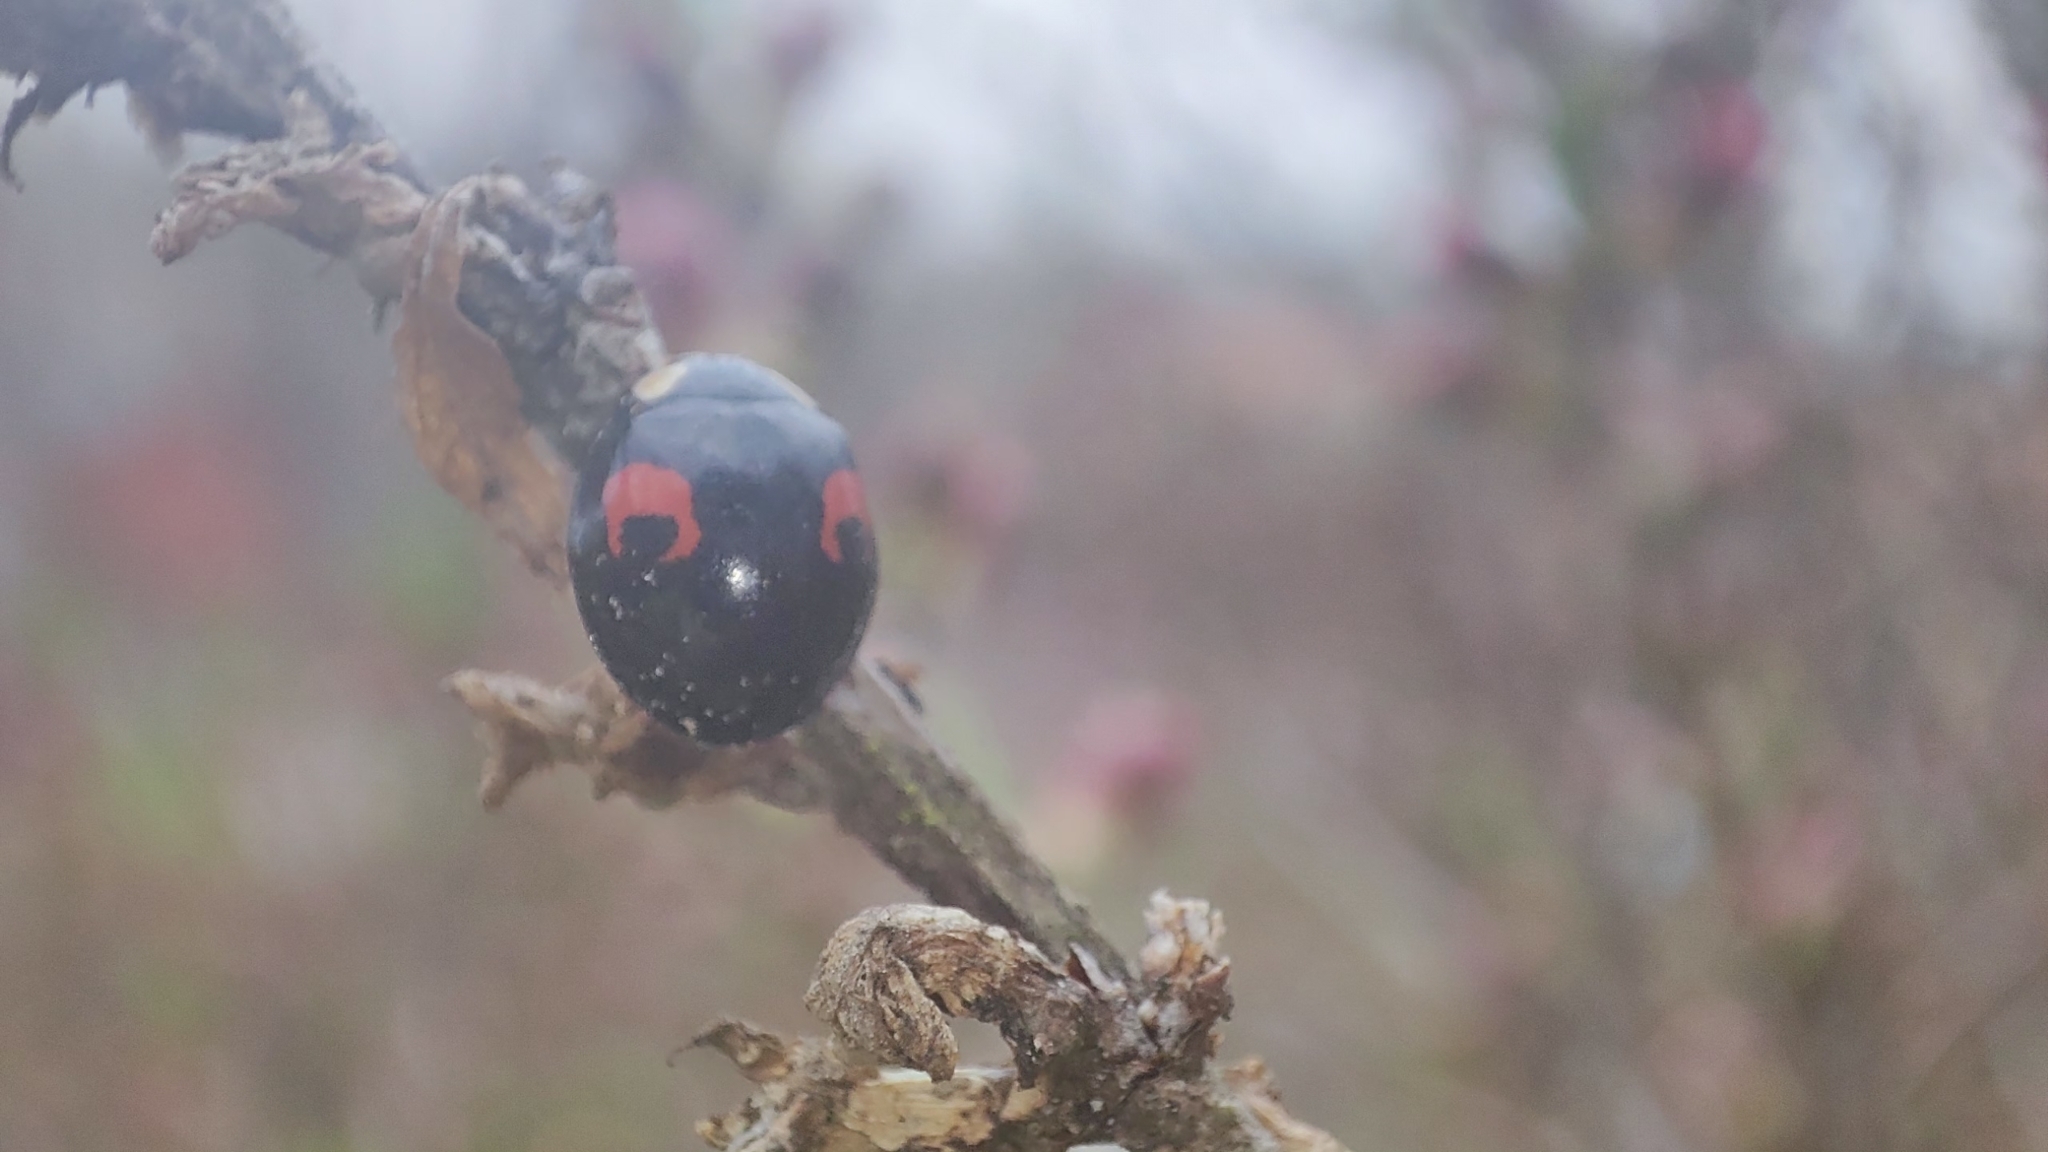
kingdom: Animalia
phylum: Arthropoda
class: Insecta
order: Coleoptera
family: Coccinellidae
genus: Harmonia
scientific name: Harmonia axyridis
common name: Harlequin ladybird
